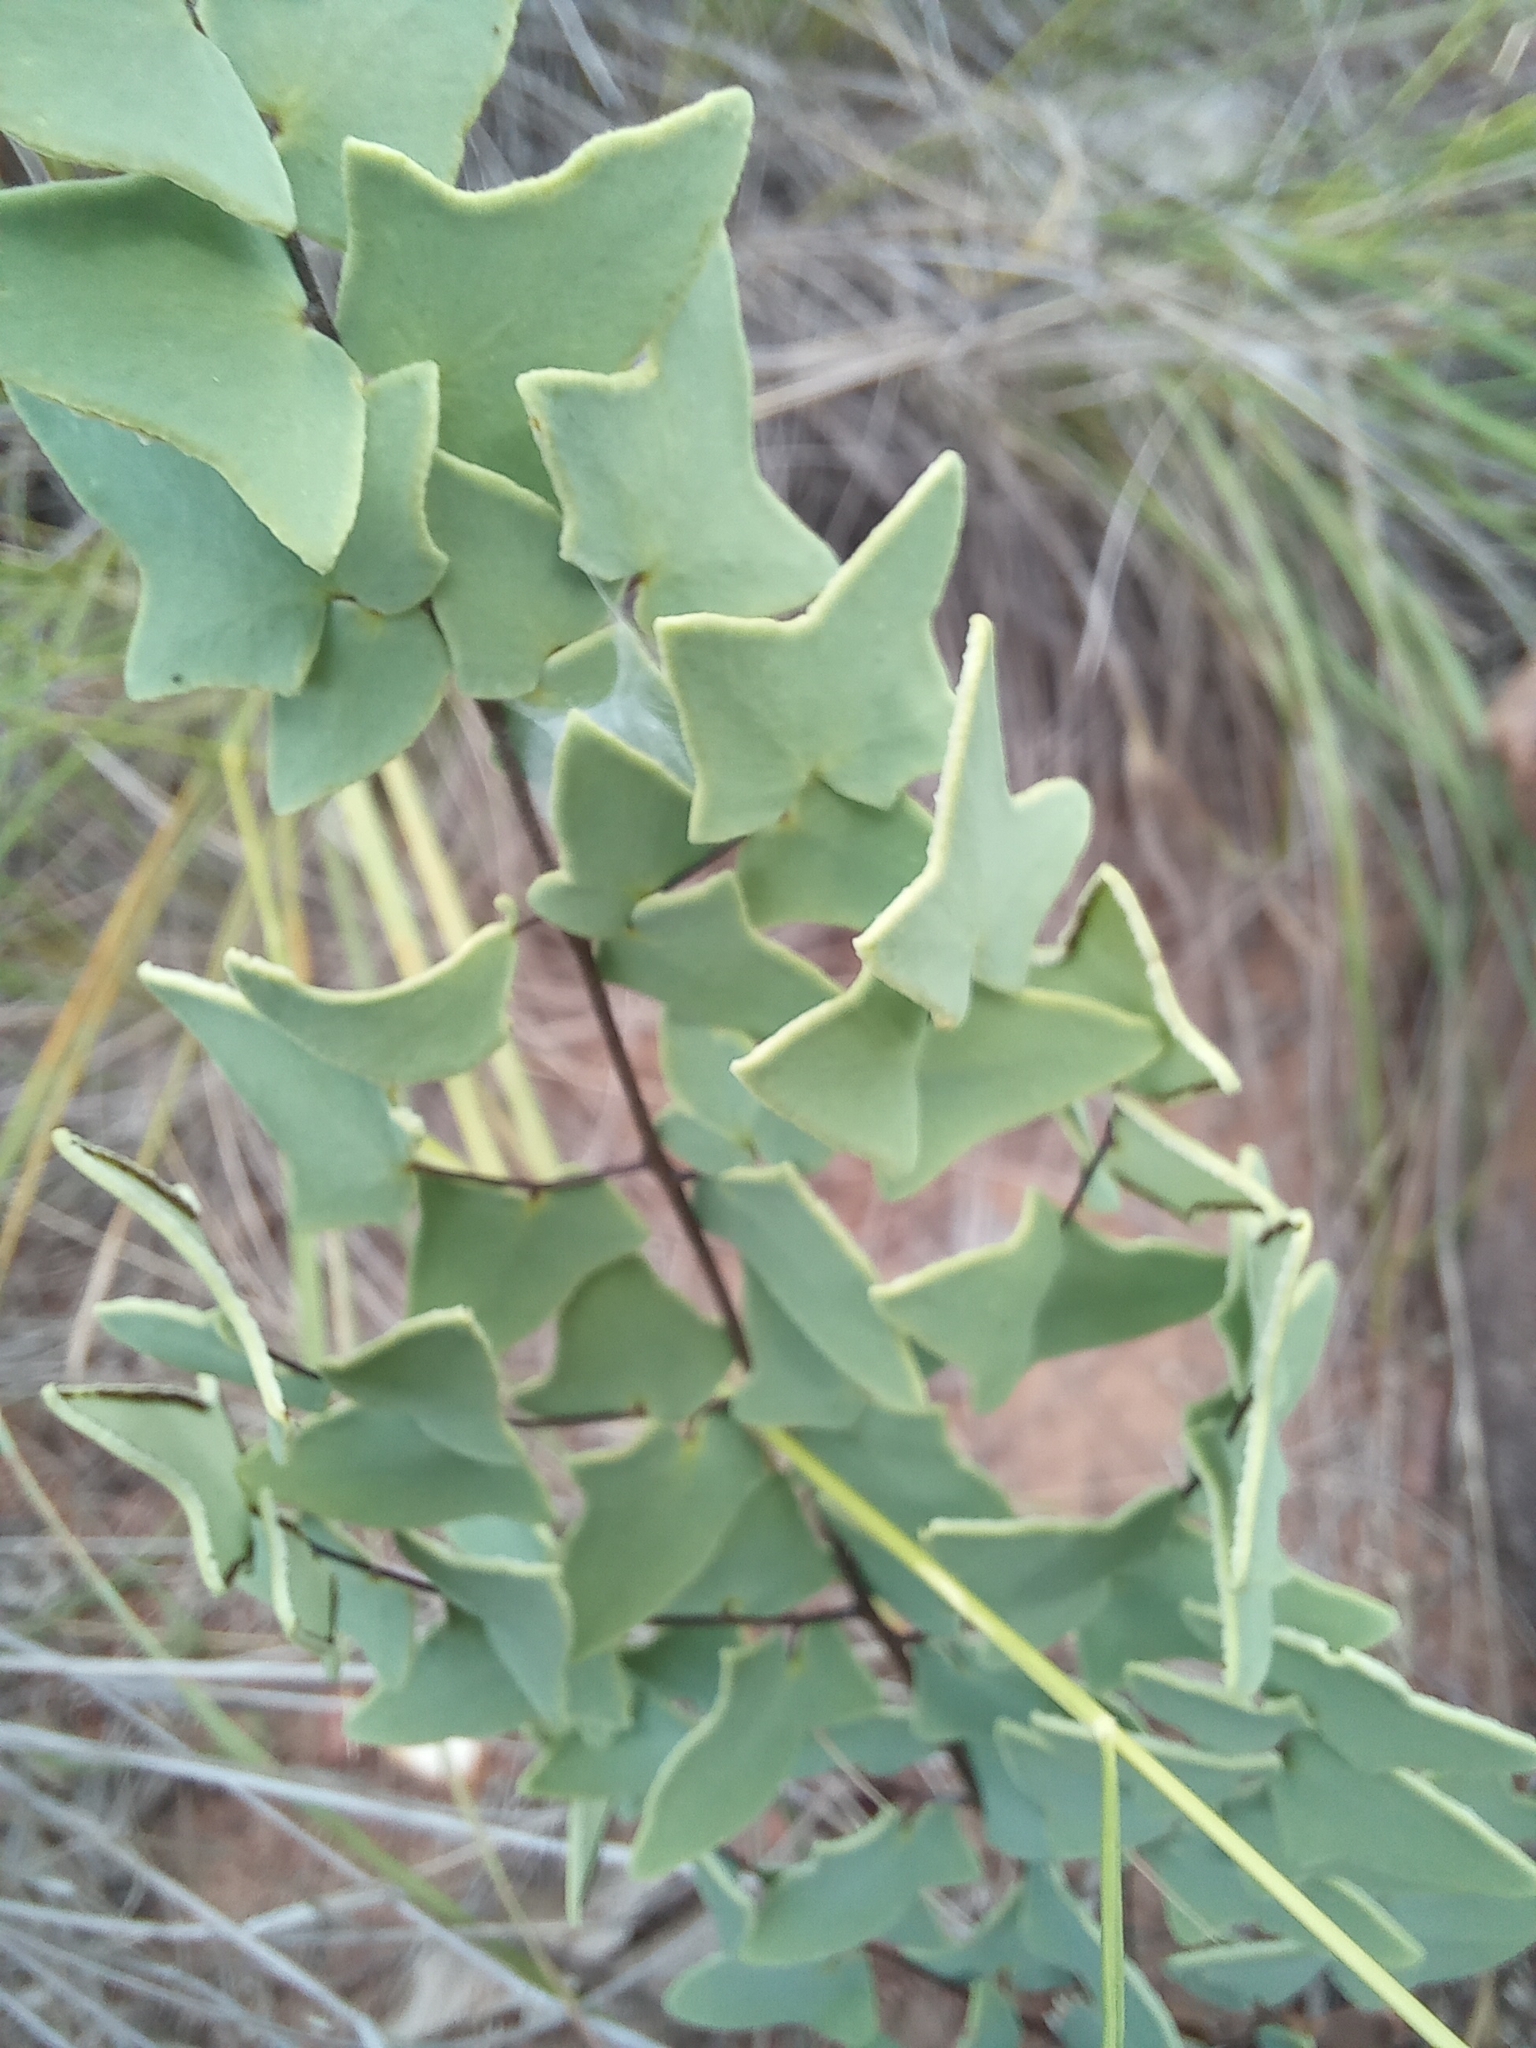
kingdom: Plantae
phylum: Tracheophyta
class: Polypodiopsida
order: Polypodiales
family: Pteridaceae
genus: Pellaea
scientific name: Pellaea calomelanos
